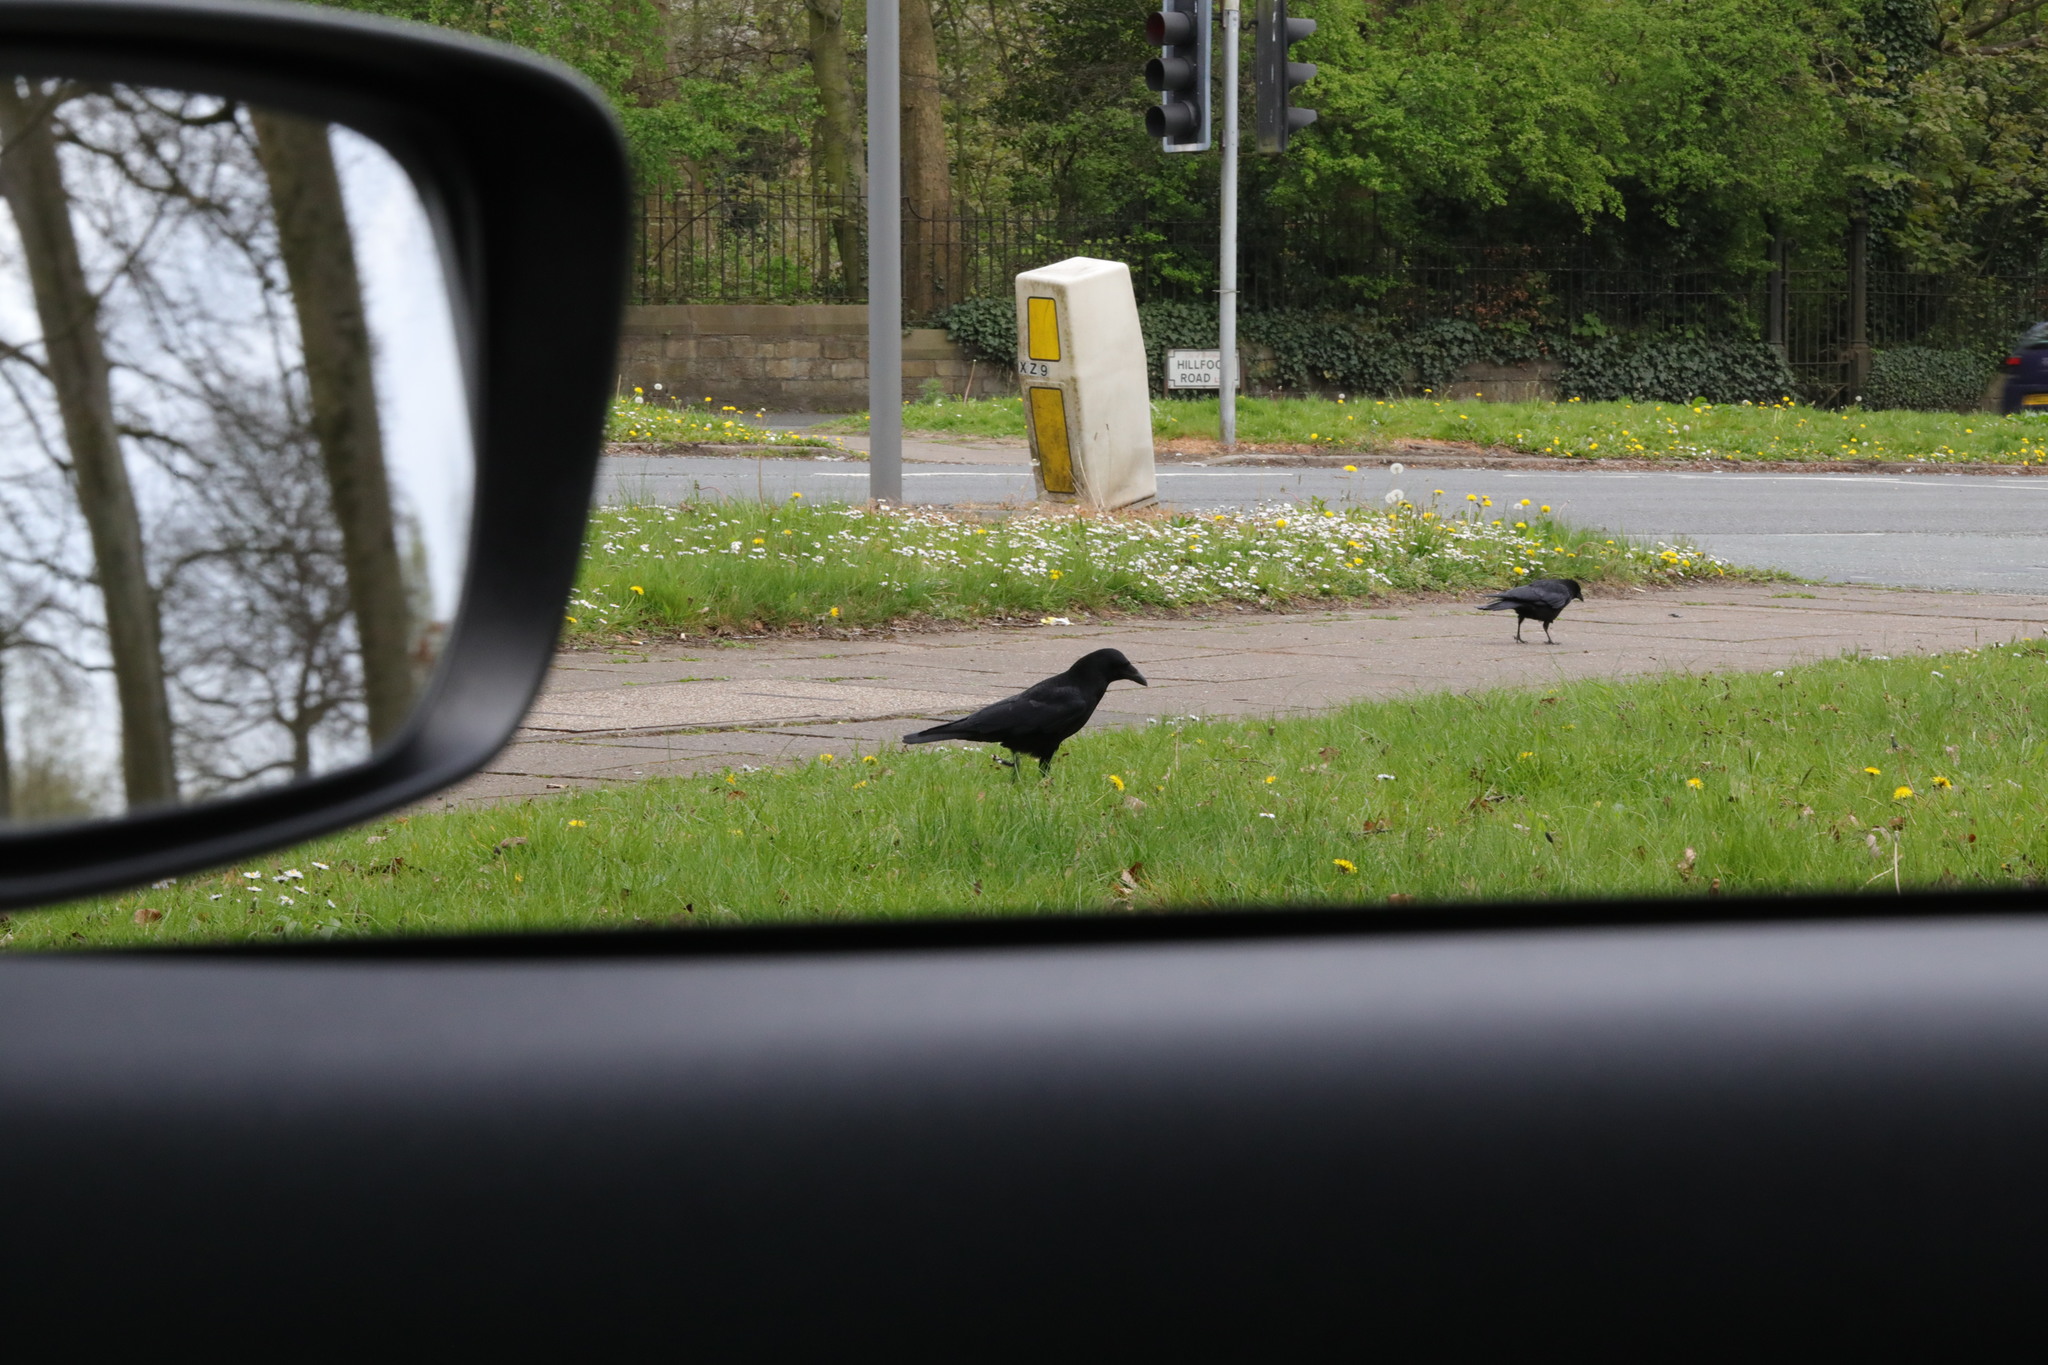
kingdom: Animalia
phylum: Chordata
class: Aves
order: Passeriformes
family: Corvidae
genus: Corvus
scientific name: Corvus corone
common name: Carrion crow
